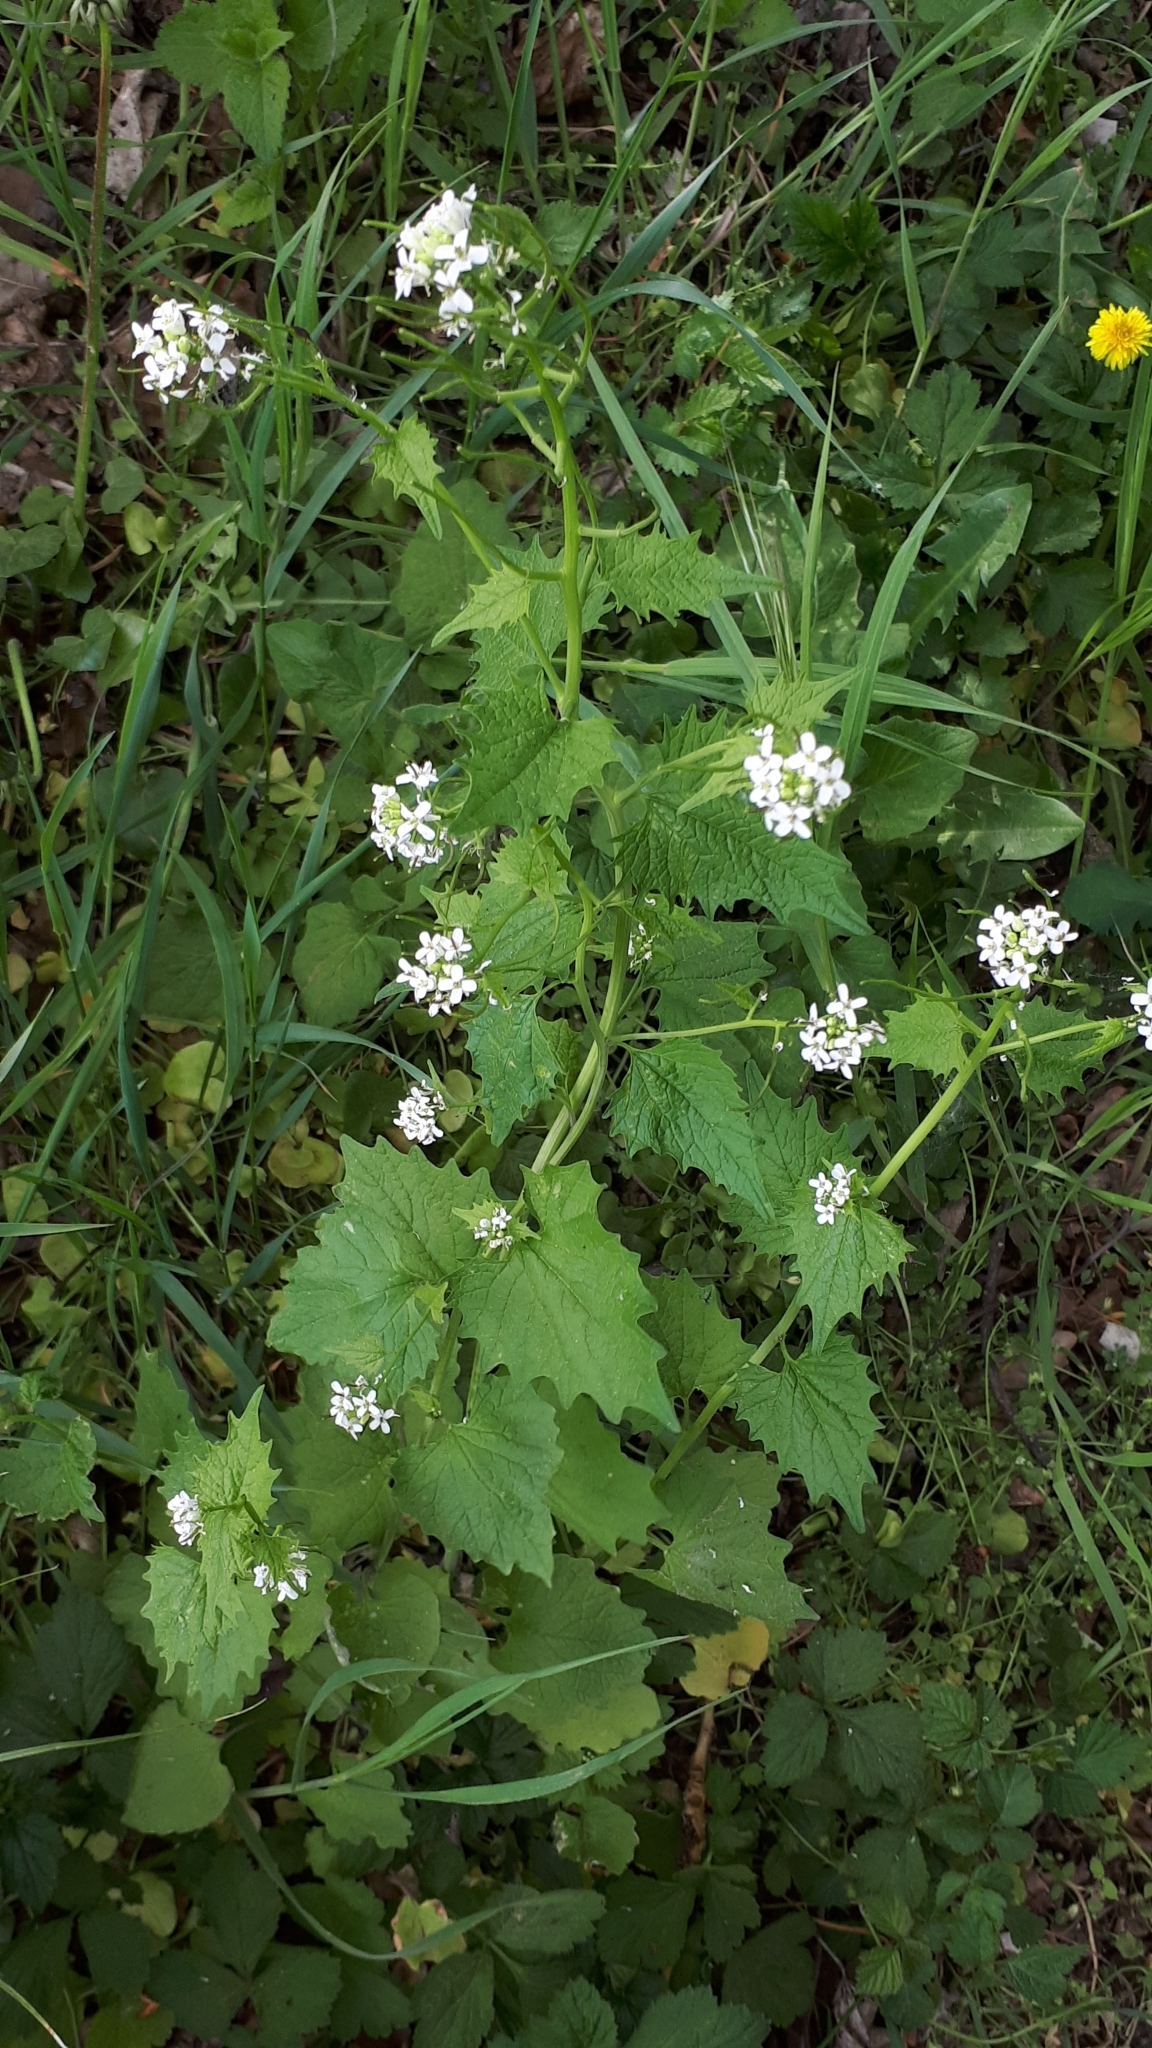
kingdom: Plantae
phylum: Tracheophyta
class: Magnoliopsida
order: Brassicales
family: Brassicaceae
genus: Alliaria
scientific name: Alliaria petiolata
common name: Garlic mustard
